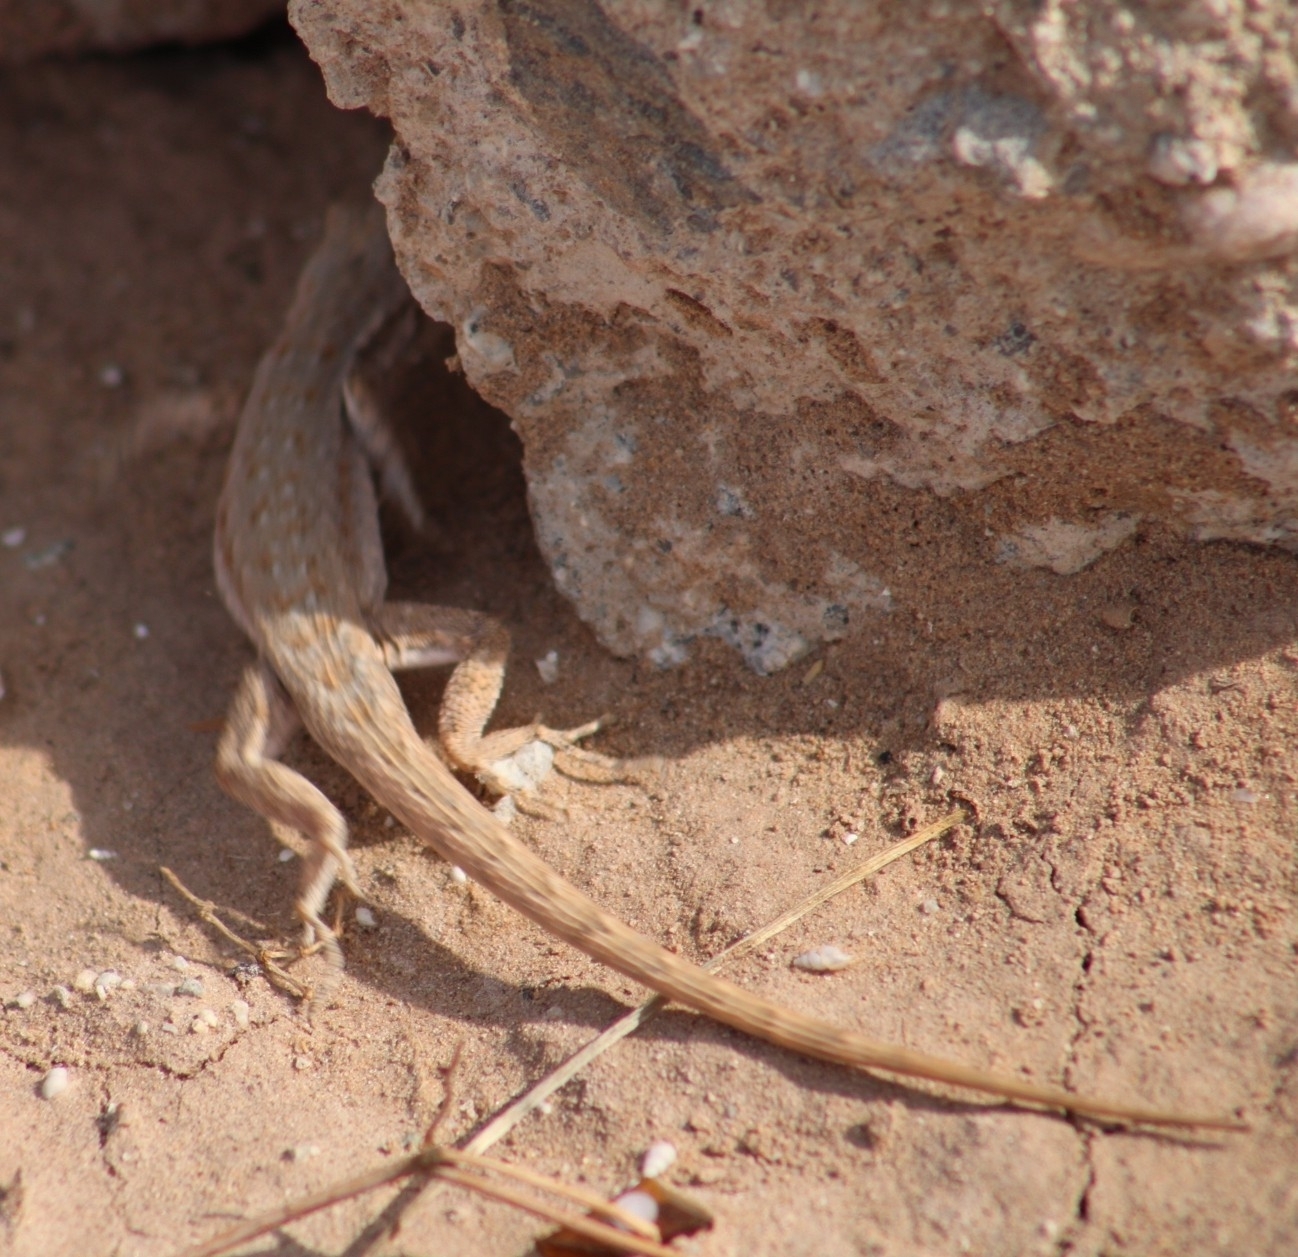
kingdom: Animalia
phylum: Chordata
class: Squamata
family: Phrynosomatidae
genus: Uta
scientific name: Uta stansburiana
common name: Side-blotched lizard
